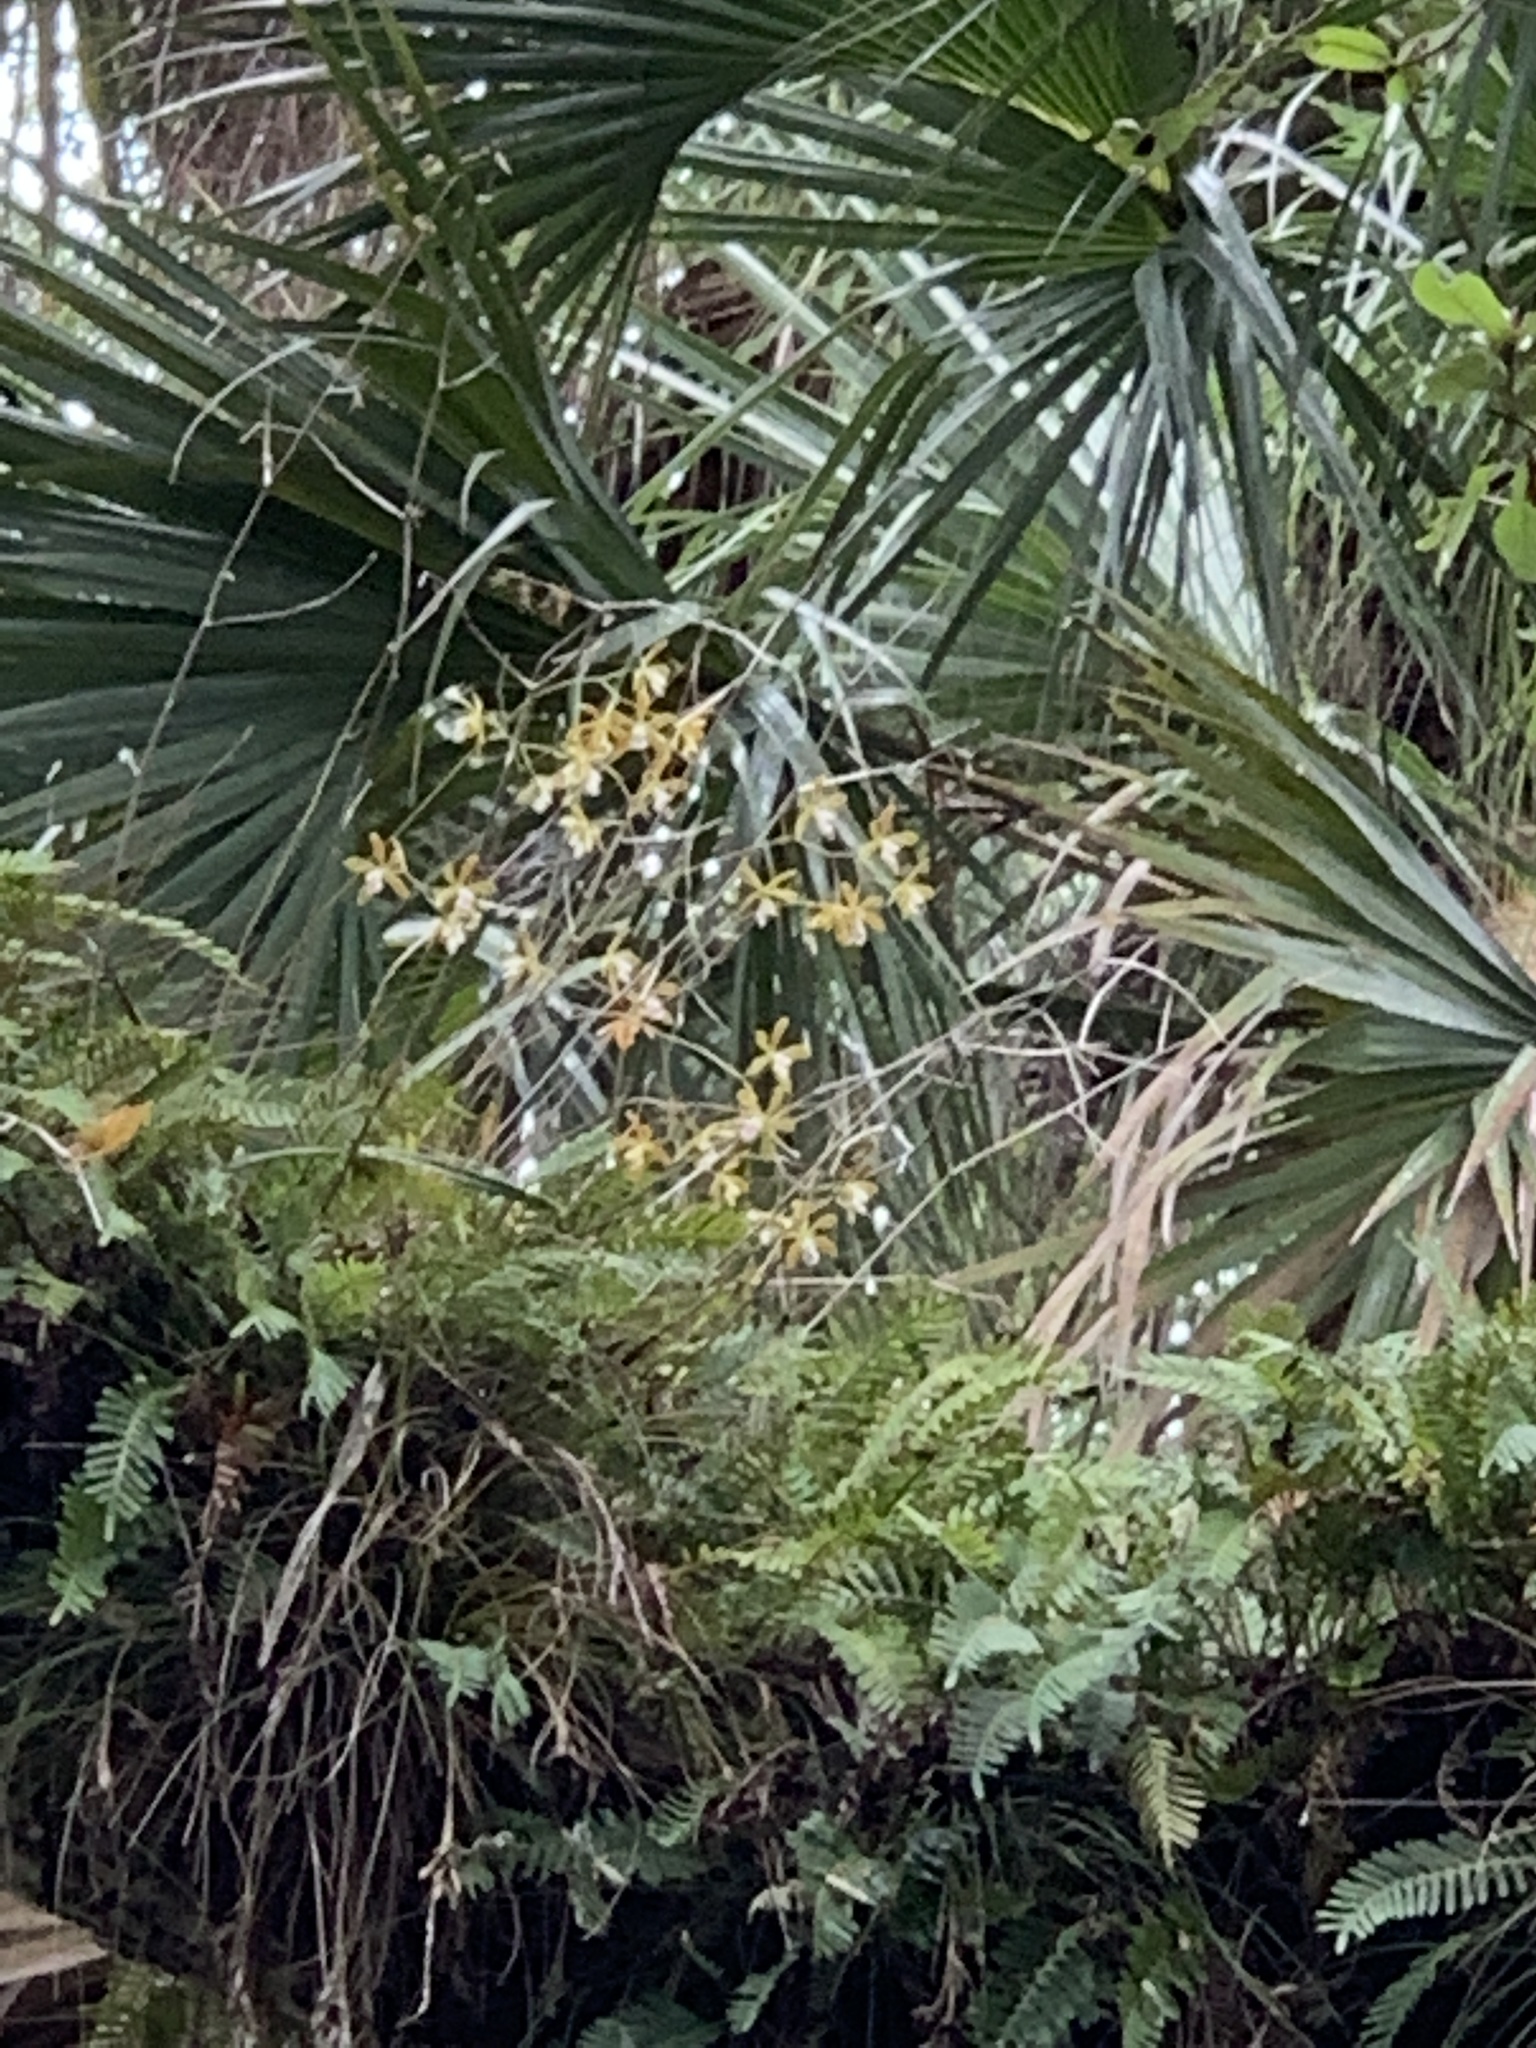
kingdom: Plantae
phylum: Tracheophyta
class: Liliopsida
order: Asparagales
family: Orchidaceae
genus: Encyclia
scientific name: Encyclia tampensis
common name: Florida butterfly orchid
